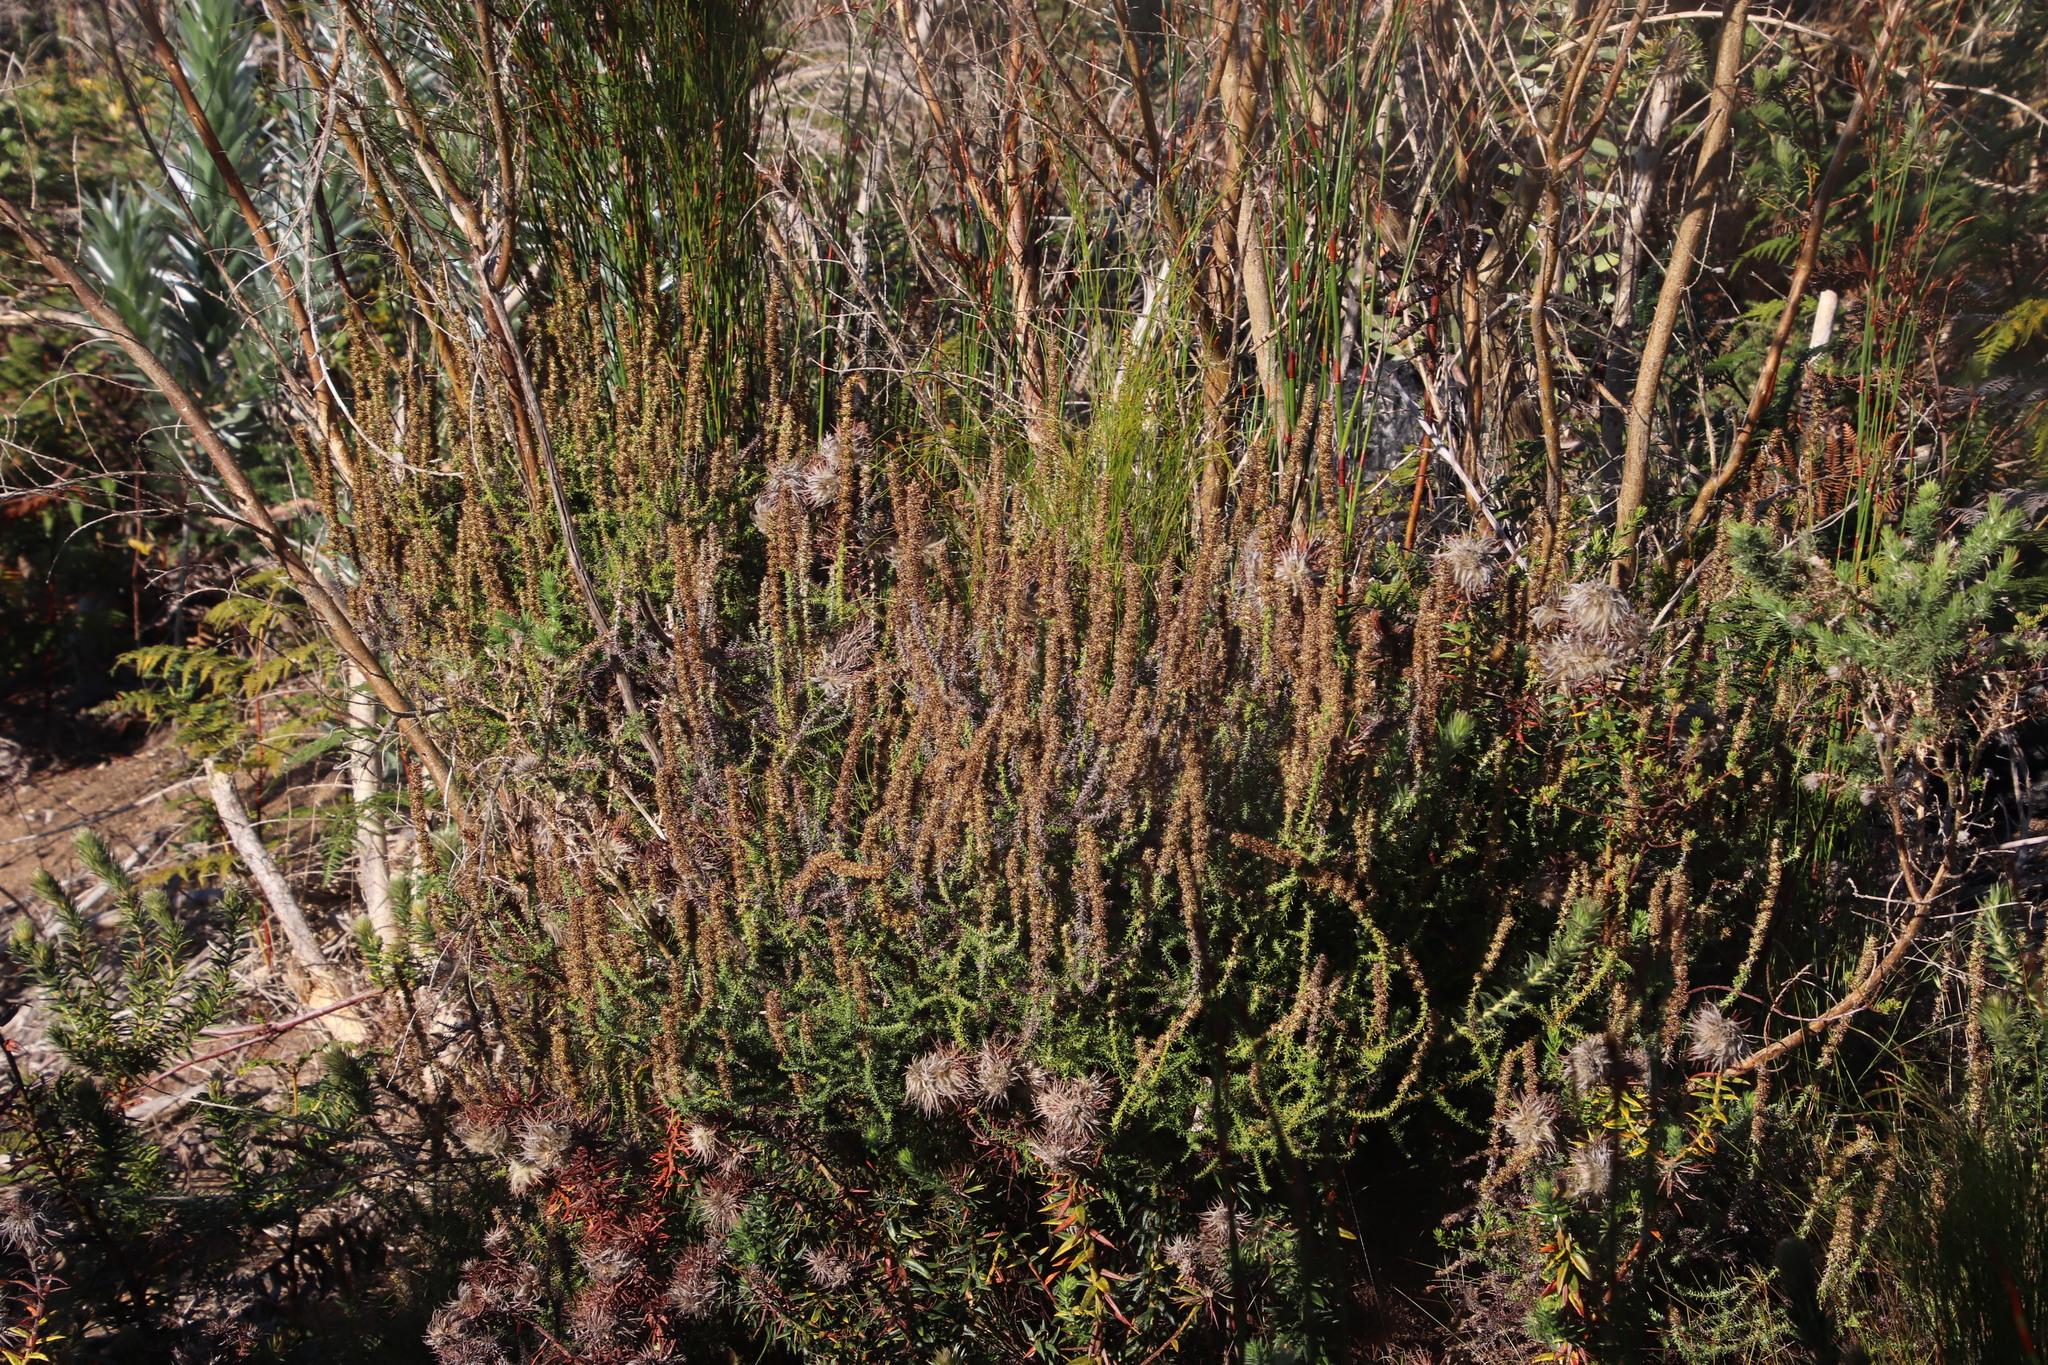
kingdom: Plantae
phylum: Tracheophyta
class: Magnoliopsida
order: Asterales
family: Asteraceae
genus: Seriphium
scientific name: Seriphium cinereum
